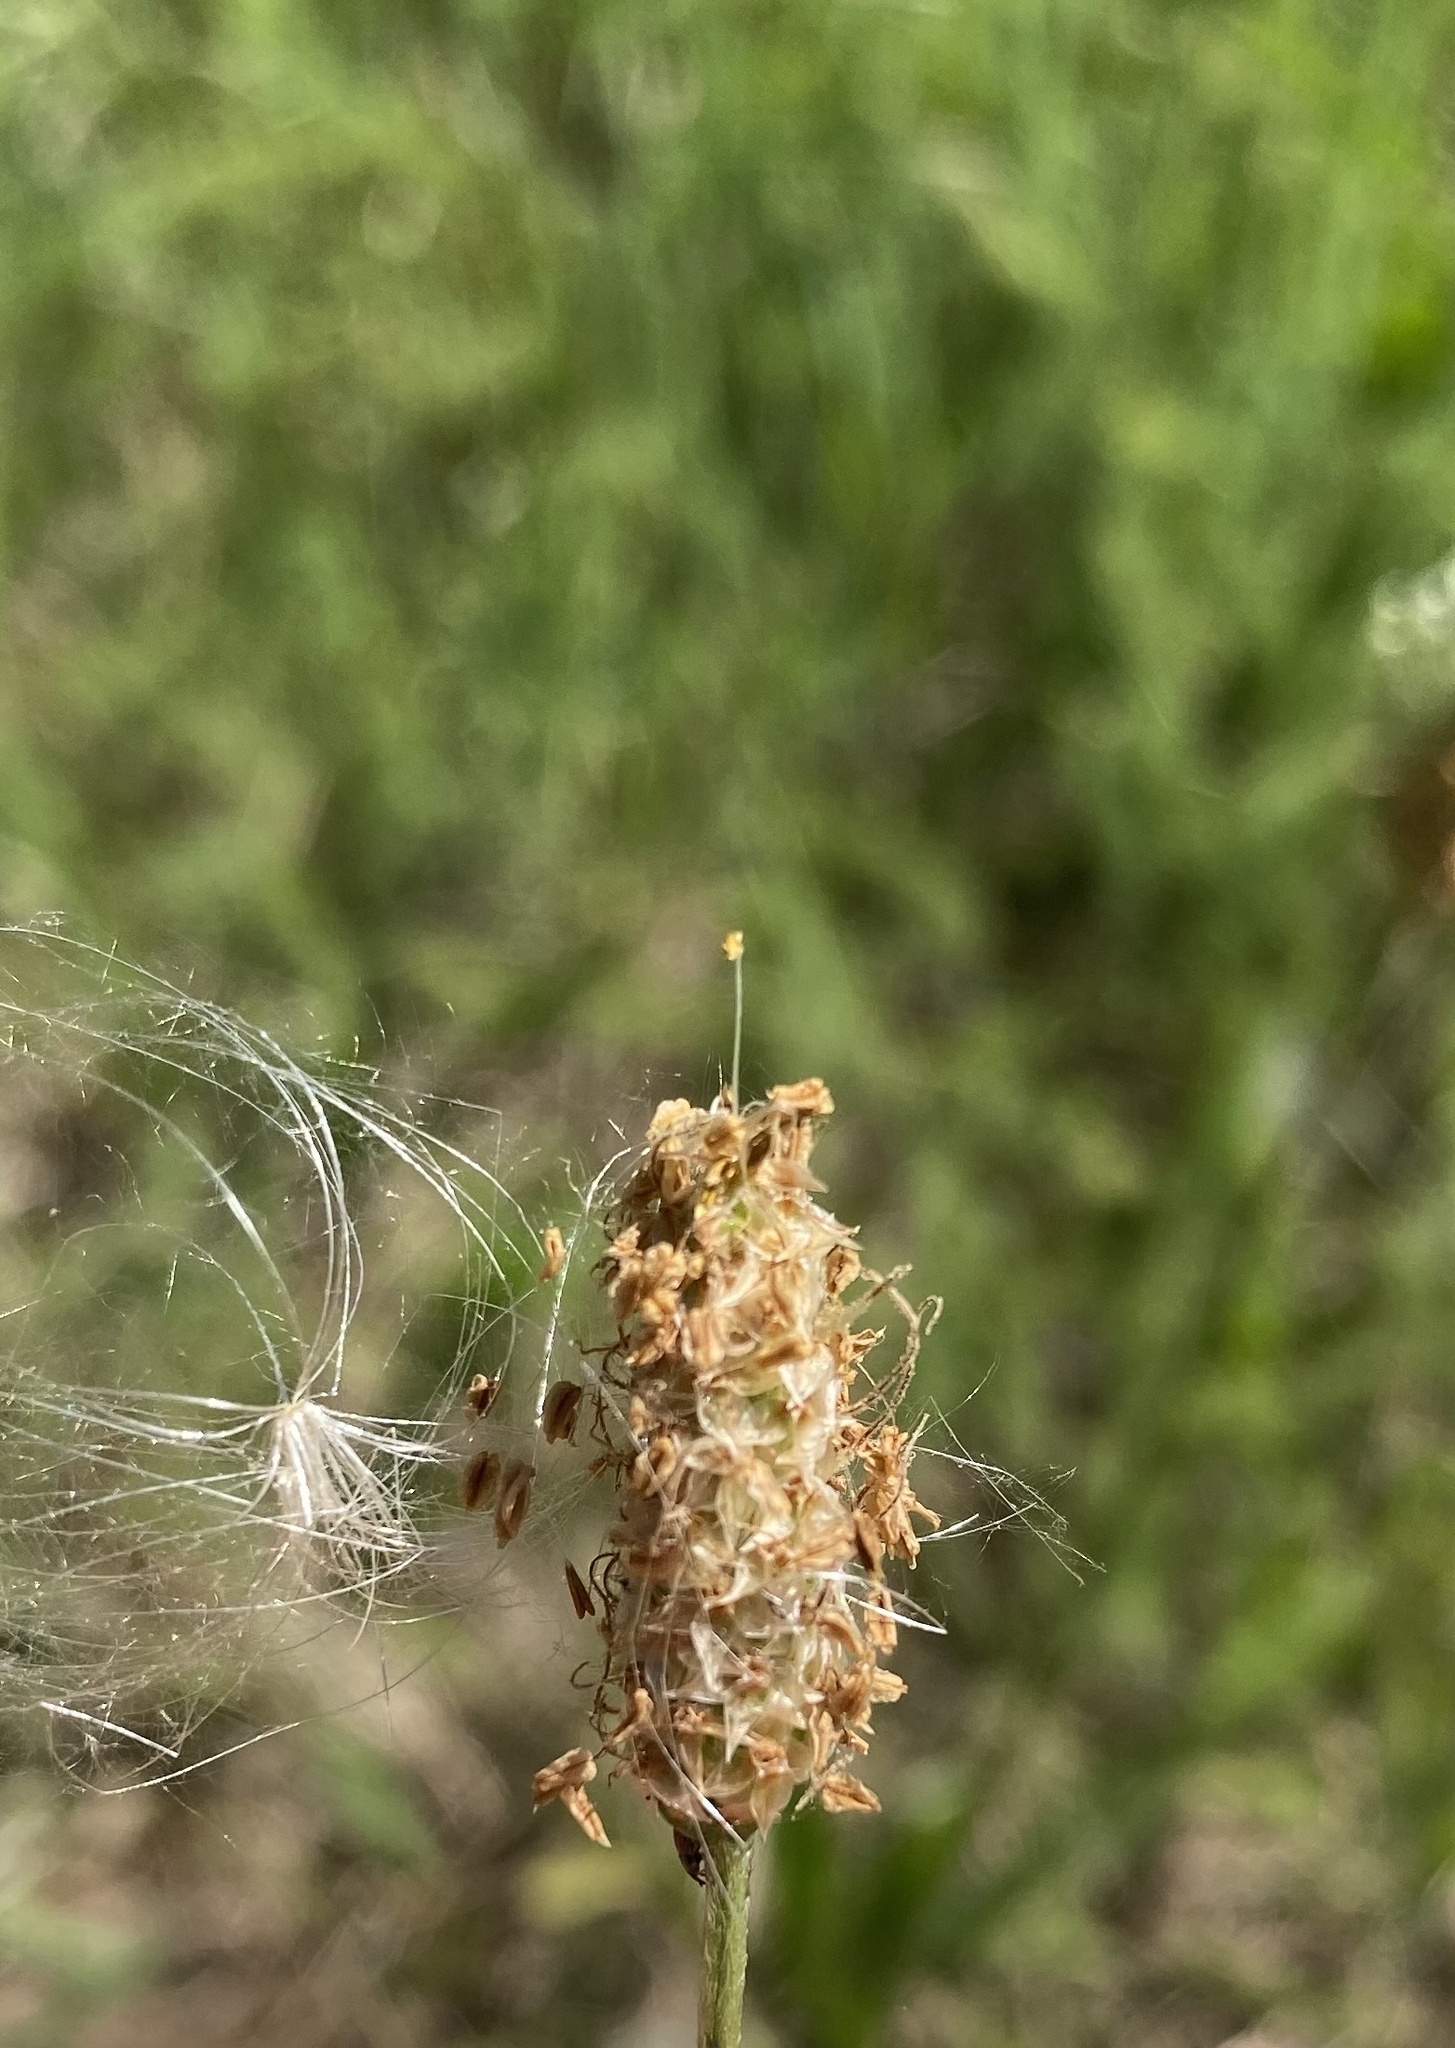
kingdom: Plantae
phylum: Tracheophyta
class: Magnoliopsida
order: Lamiales
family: Plantaginaceae
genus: Plantago
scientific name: Plantago lanceolata
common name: Ribwort plantain
